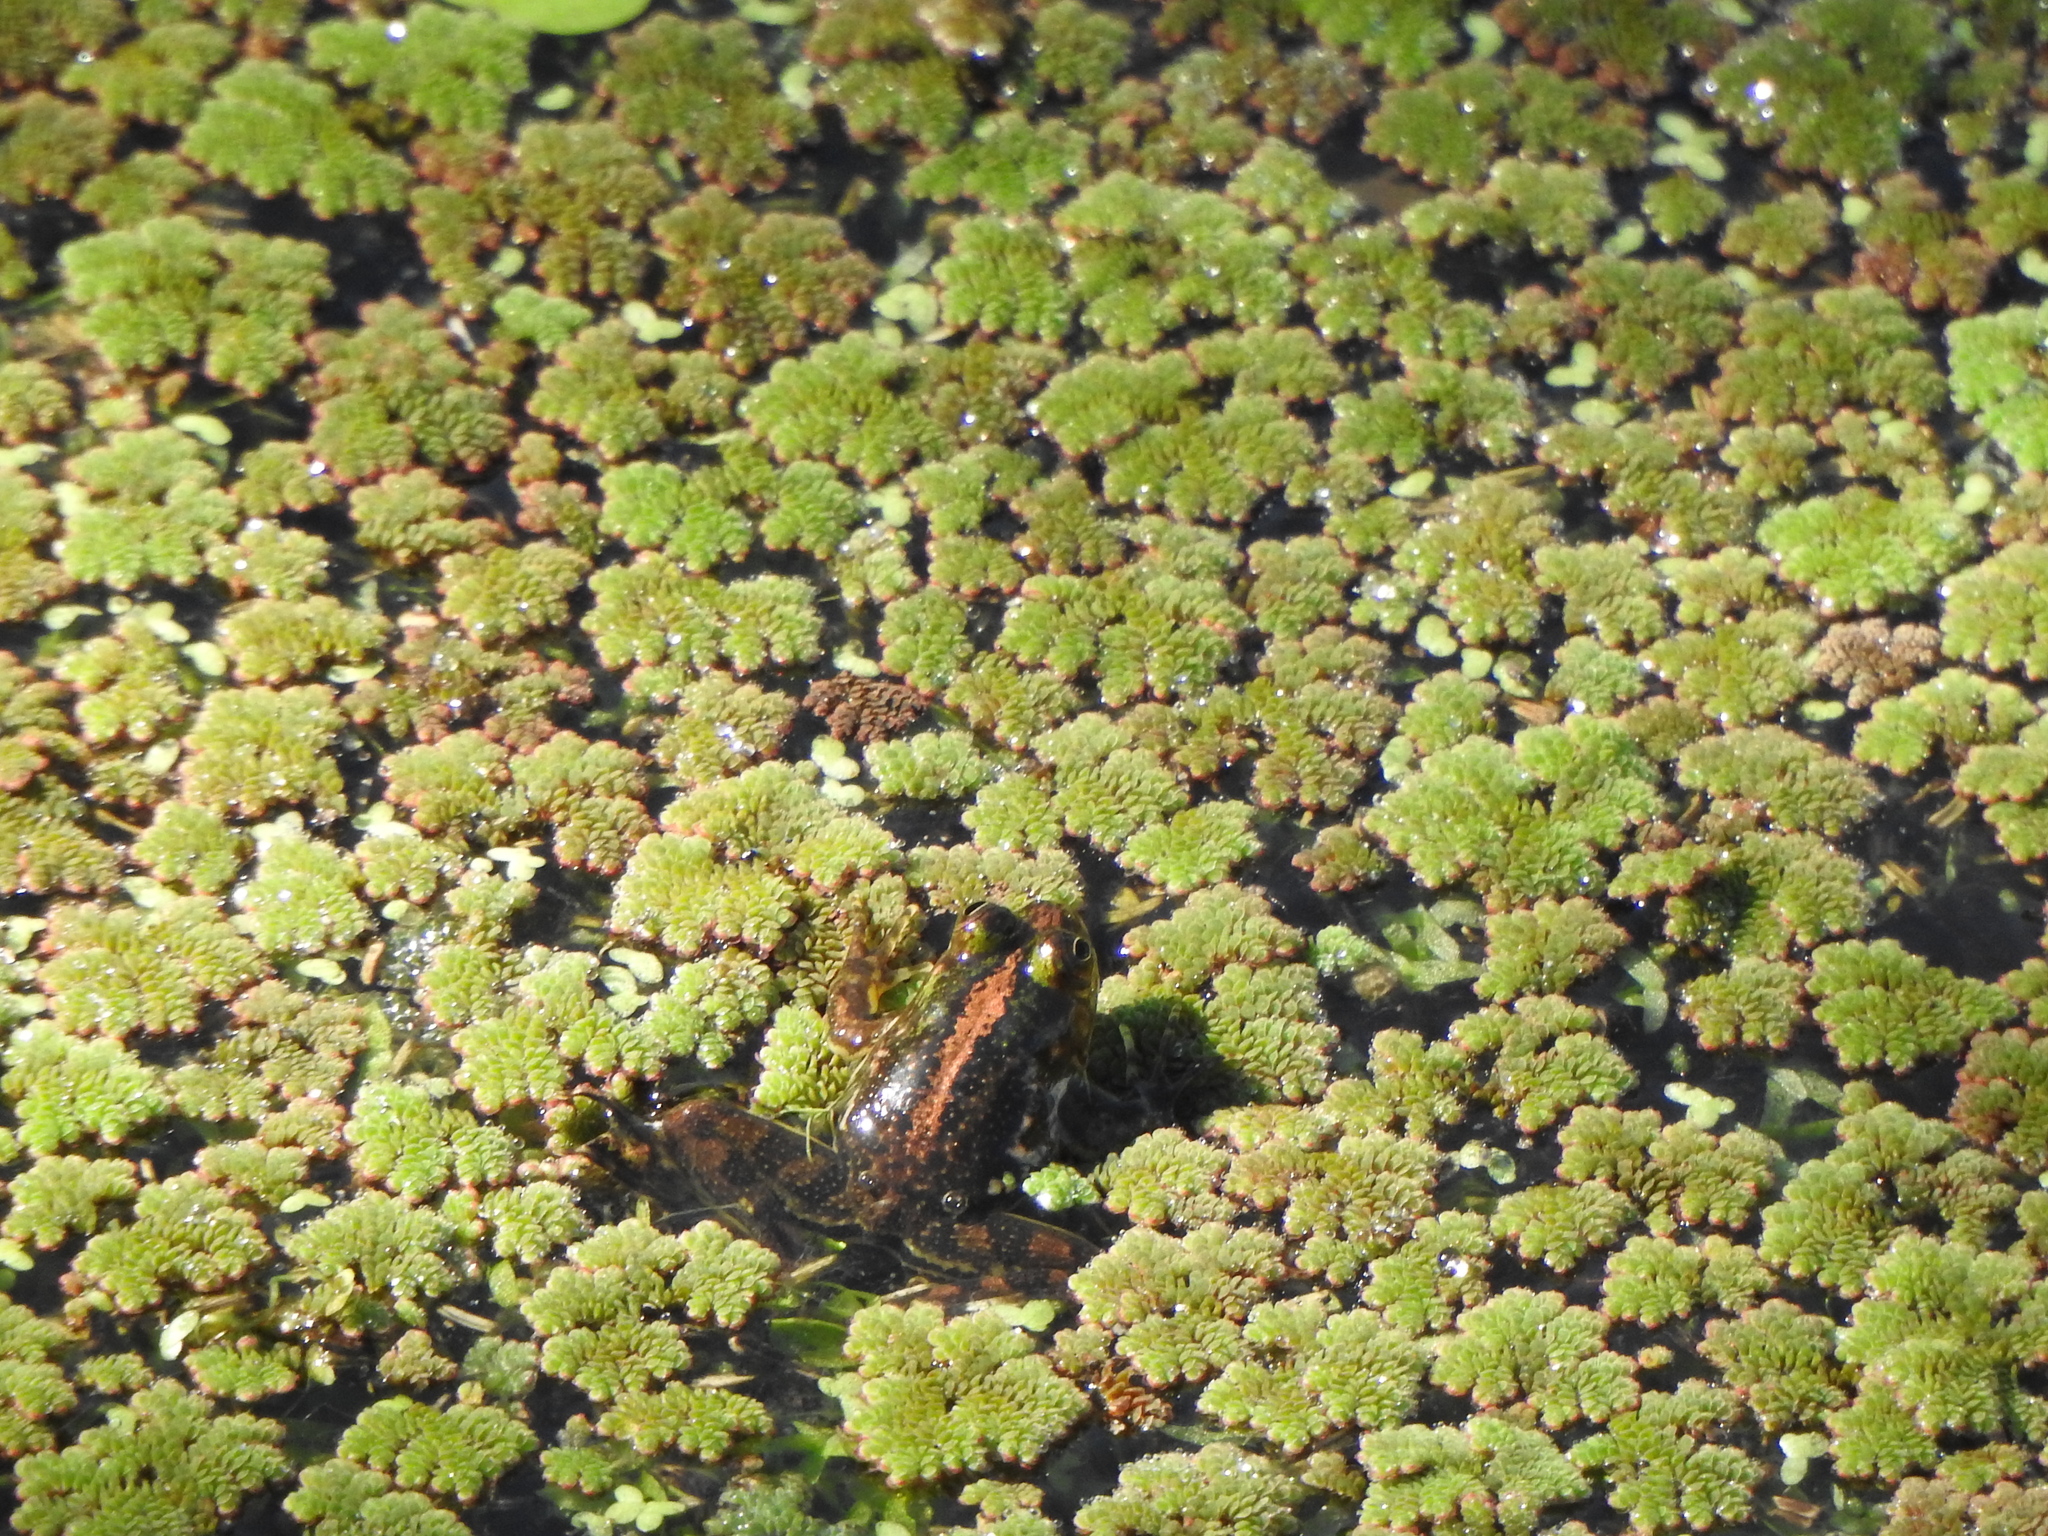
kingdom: Animalia
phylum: Chordata
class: Amphibia
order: Anura
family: Hylidae
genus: Pseudis
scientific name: Pseudis minuta
